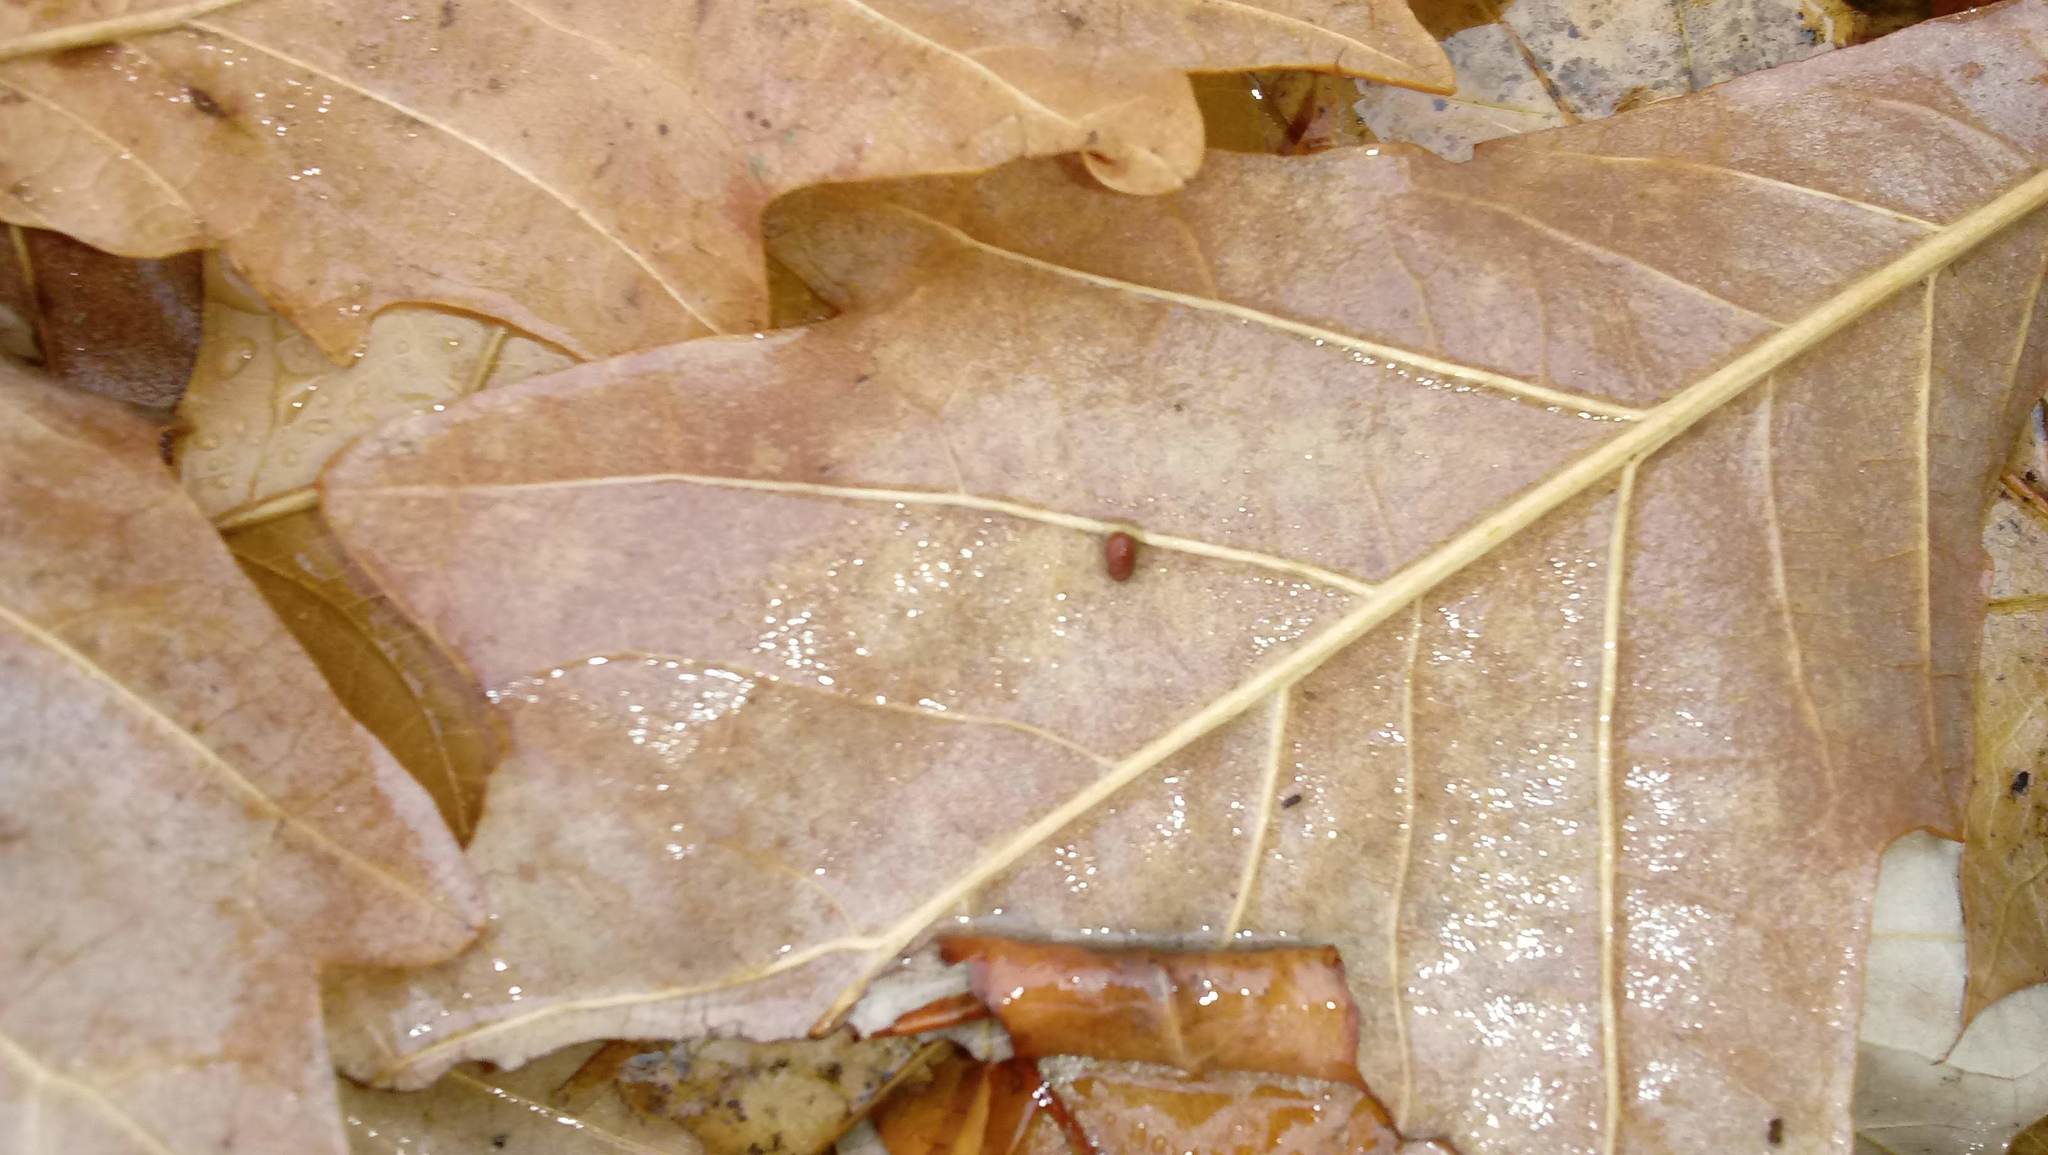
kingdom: Animalia
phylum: Arthropoda
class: Insecta
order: Hymenoptera
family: Cynipidae
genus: Andricus
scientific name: Andricus Druon ignotum
